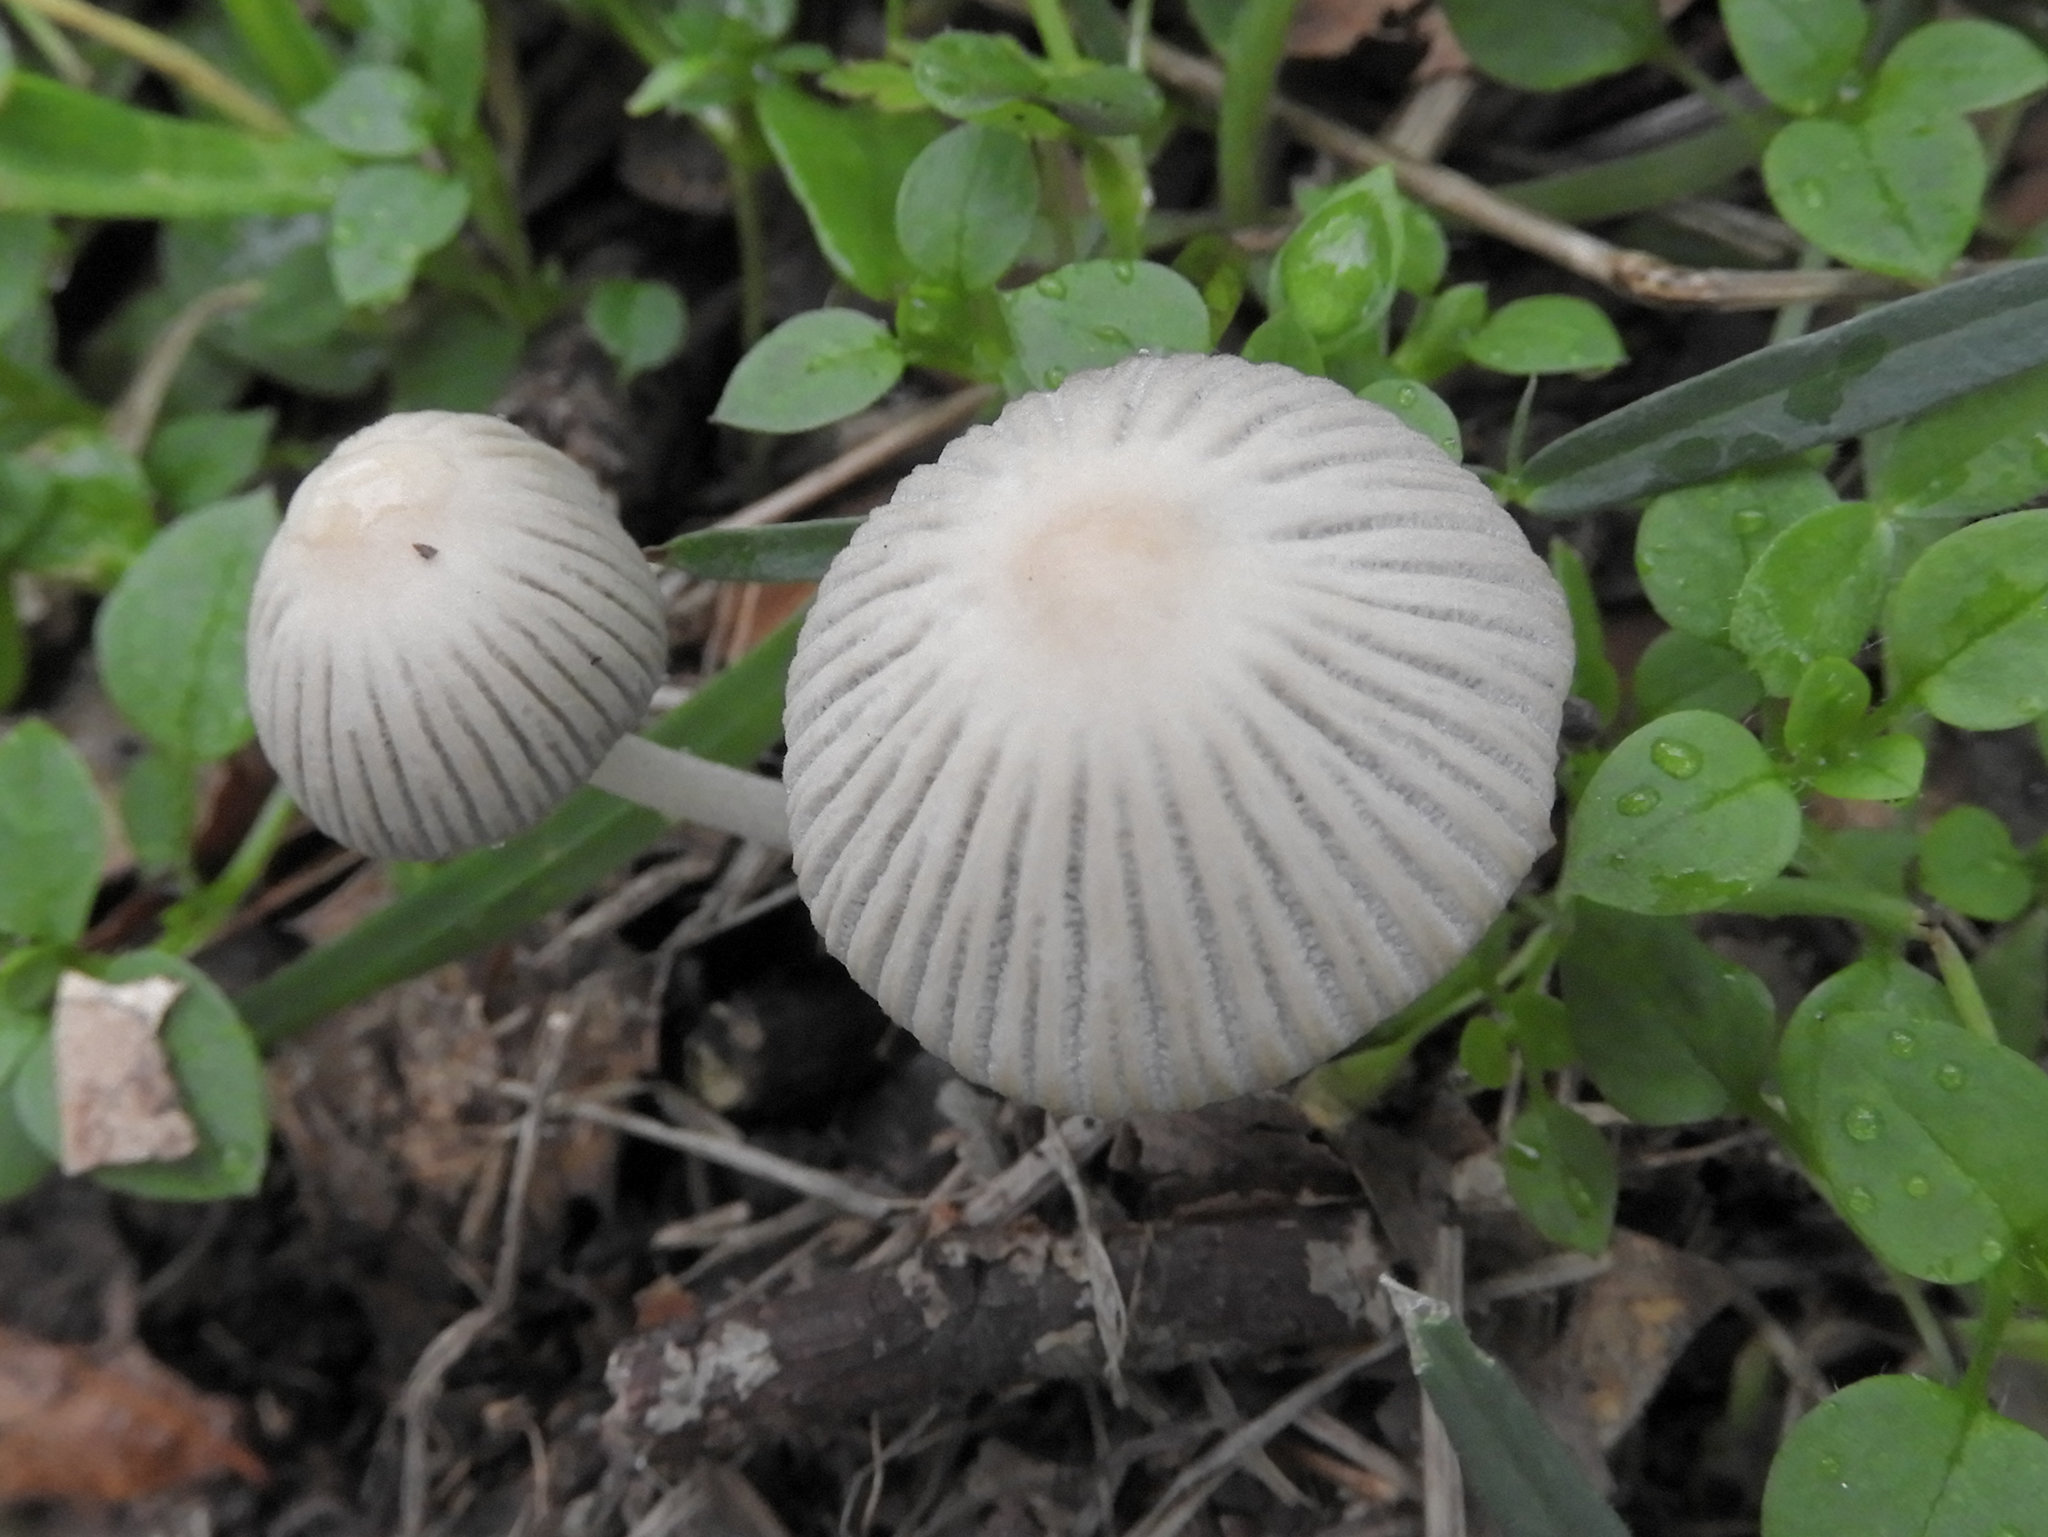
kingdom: Fungi
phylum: Basidiomycota
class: Agaricomycetes
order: Agaricales
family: Psathyrellaceae
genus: Coprinellus
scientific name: Coprinellus disseminatus
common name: Fairies' bonnets
